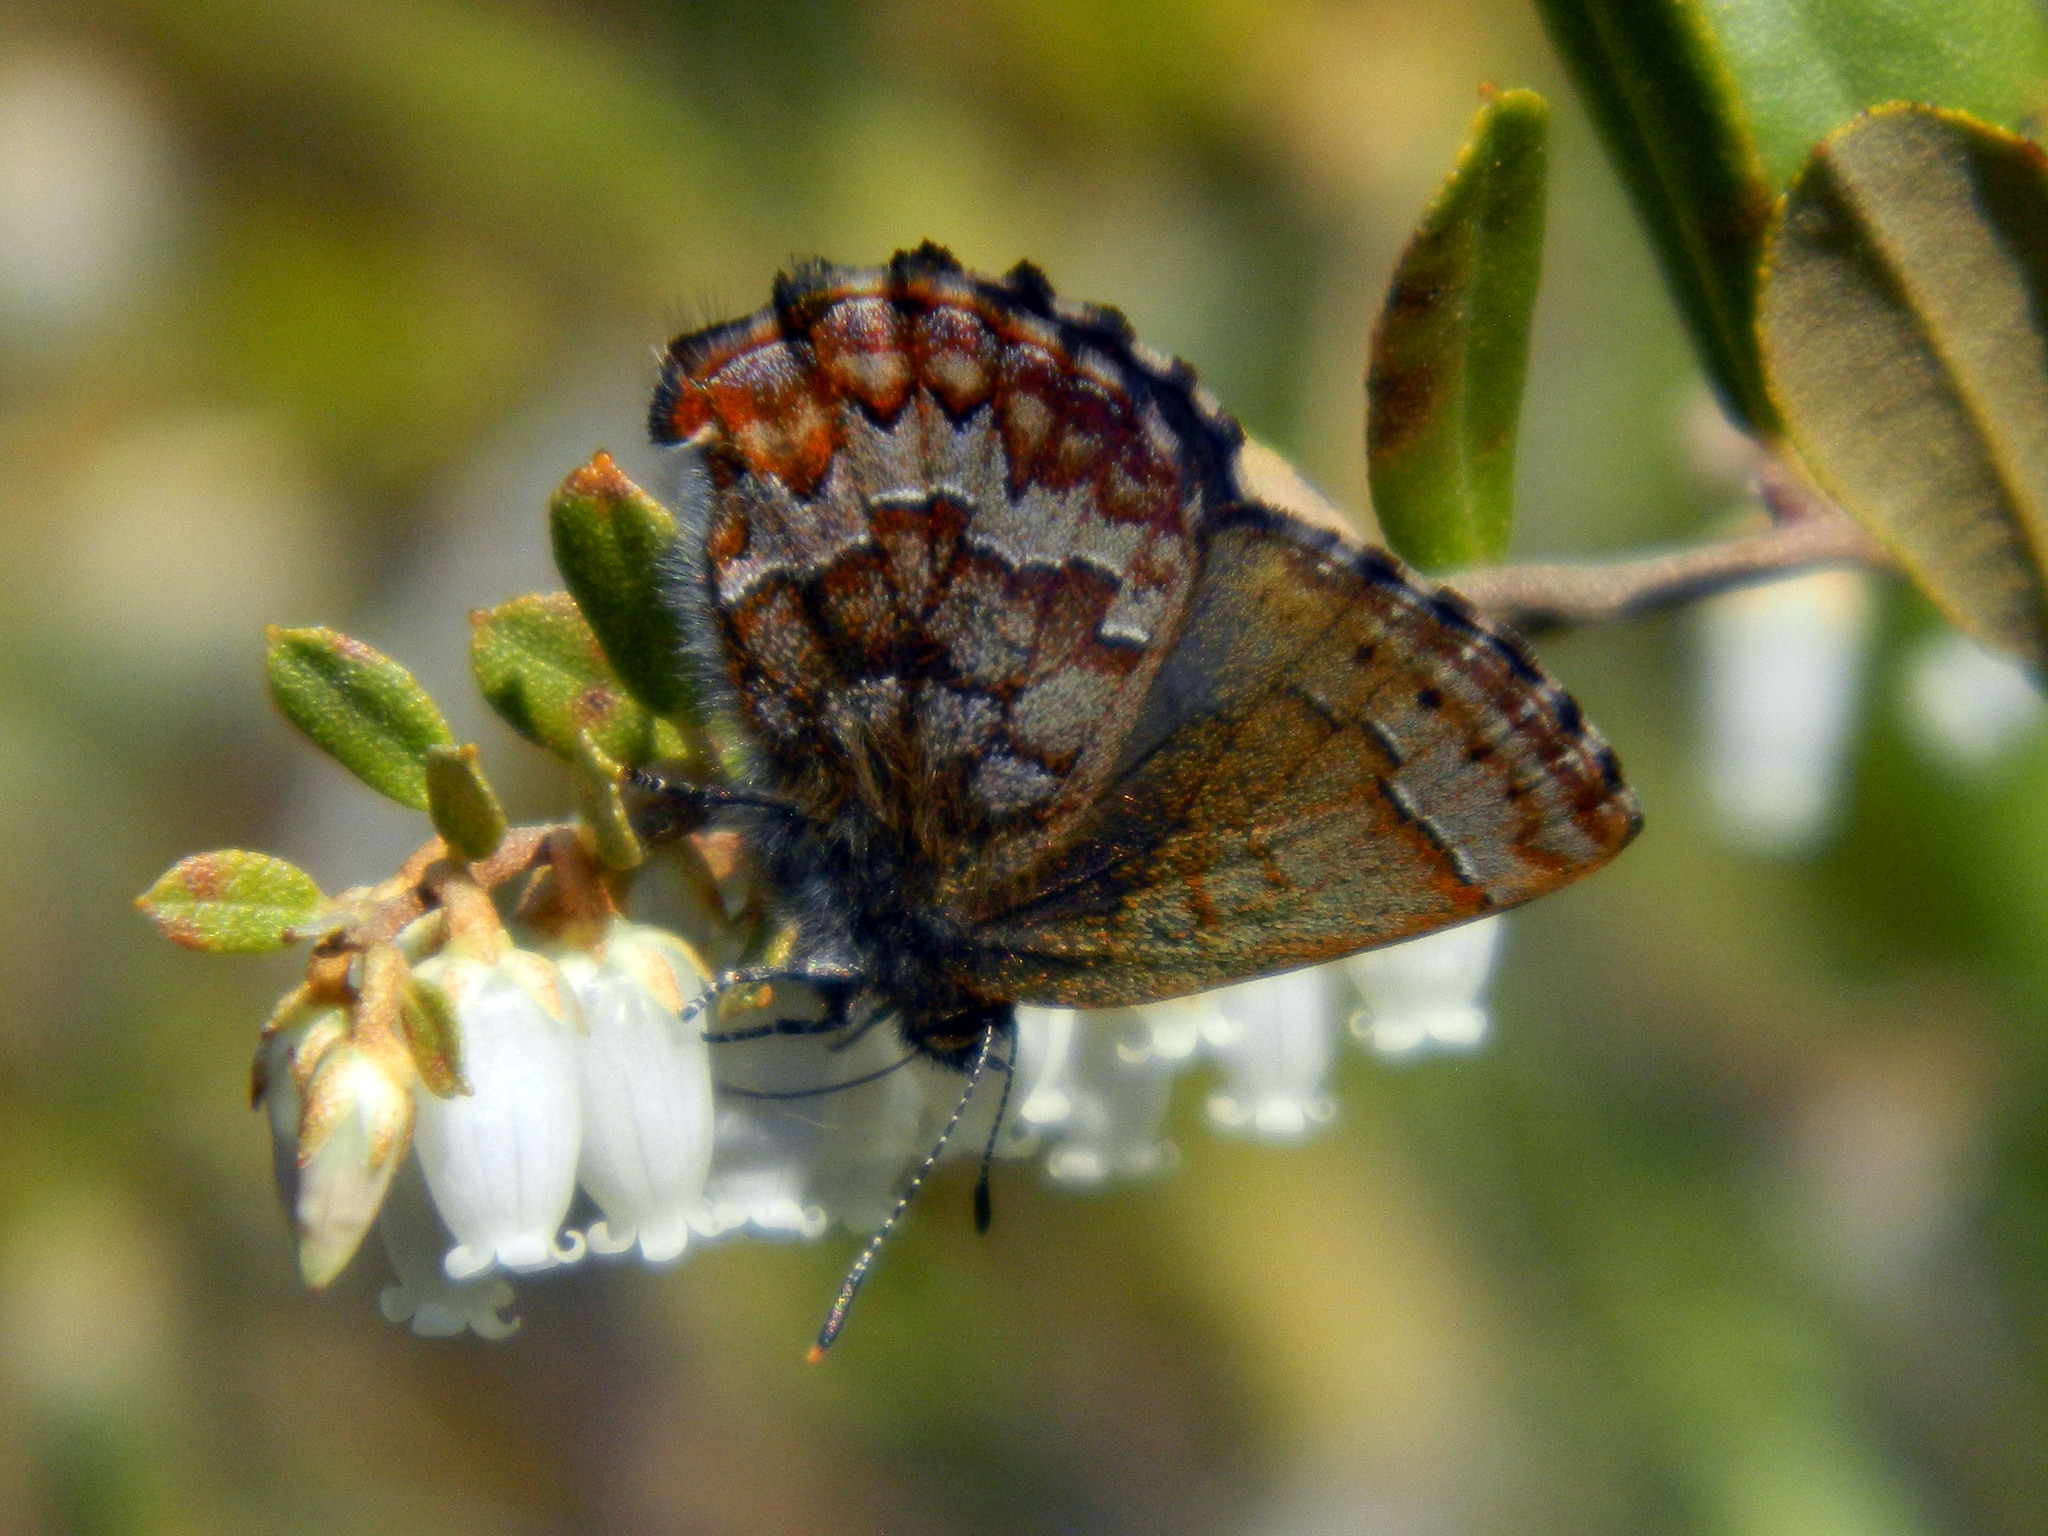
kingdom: Animalia
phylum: Arthropoda
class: Insecta
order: Lepidoptera
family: Lycaenidae
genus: Incisalia
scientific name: Incisalia niphon
